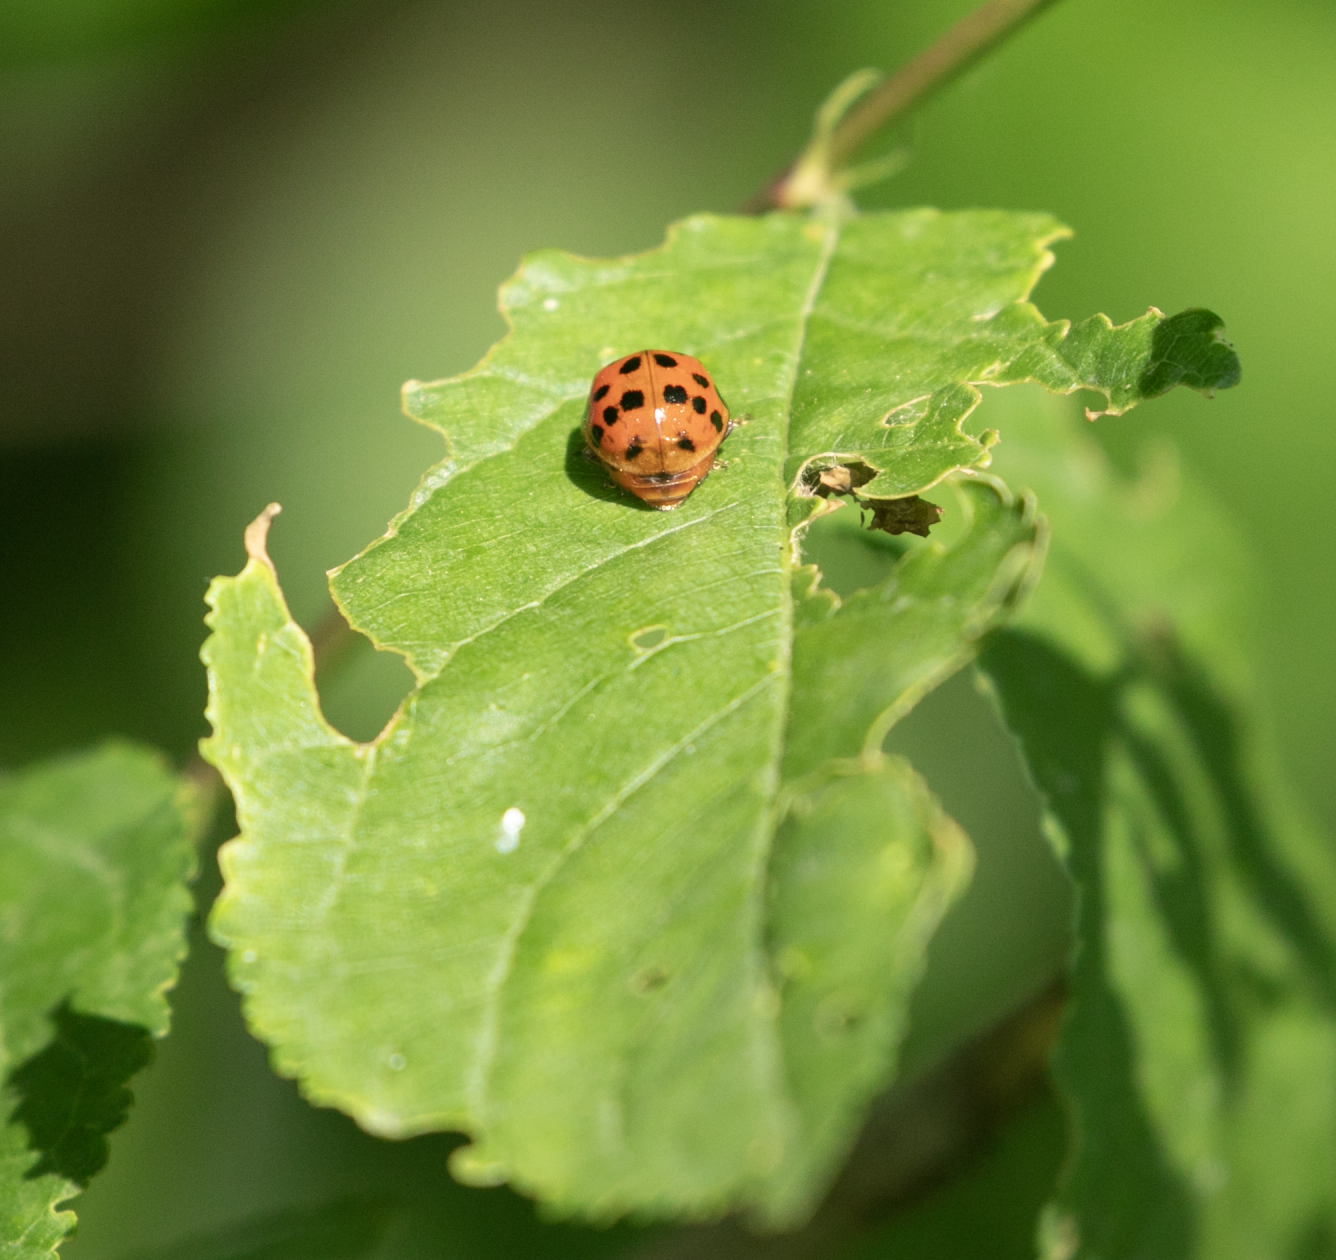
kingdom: Animalia
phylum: Arthropoda
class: Insecta
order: Coleoptera
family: Coccinellidae
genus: Harmonia
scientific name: Harmonia axyridis
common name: Harlequin ladybird
